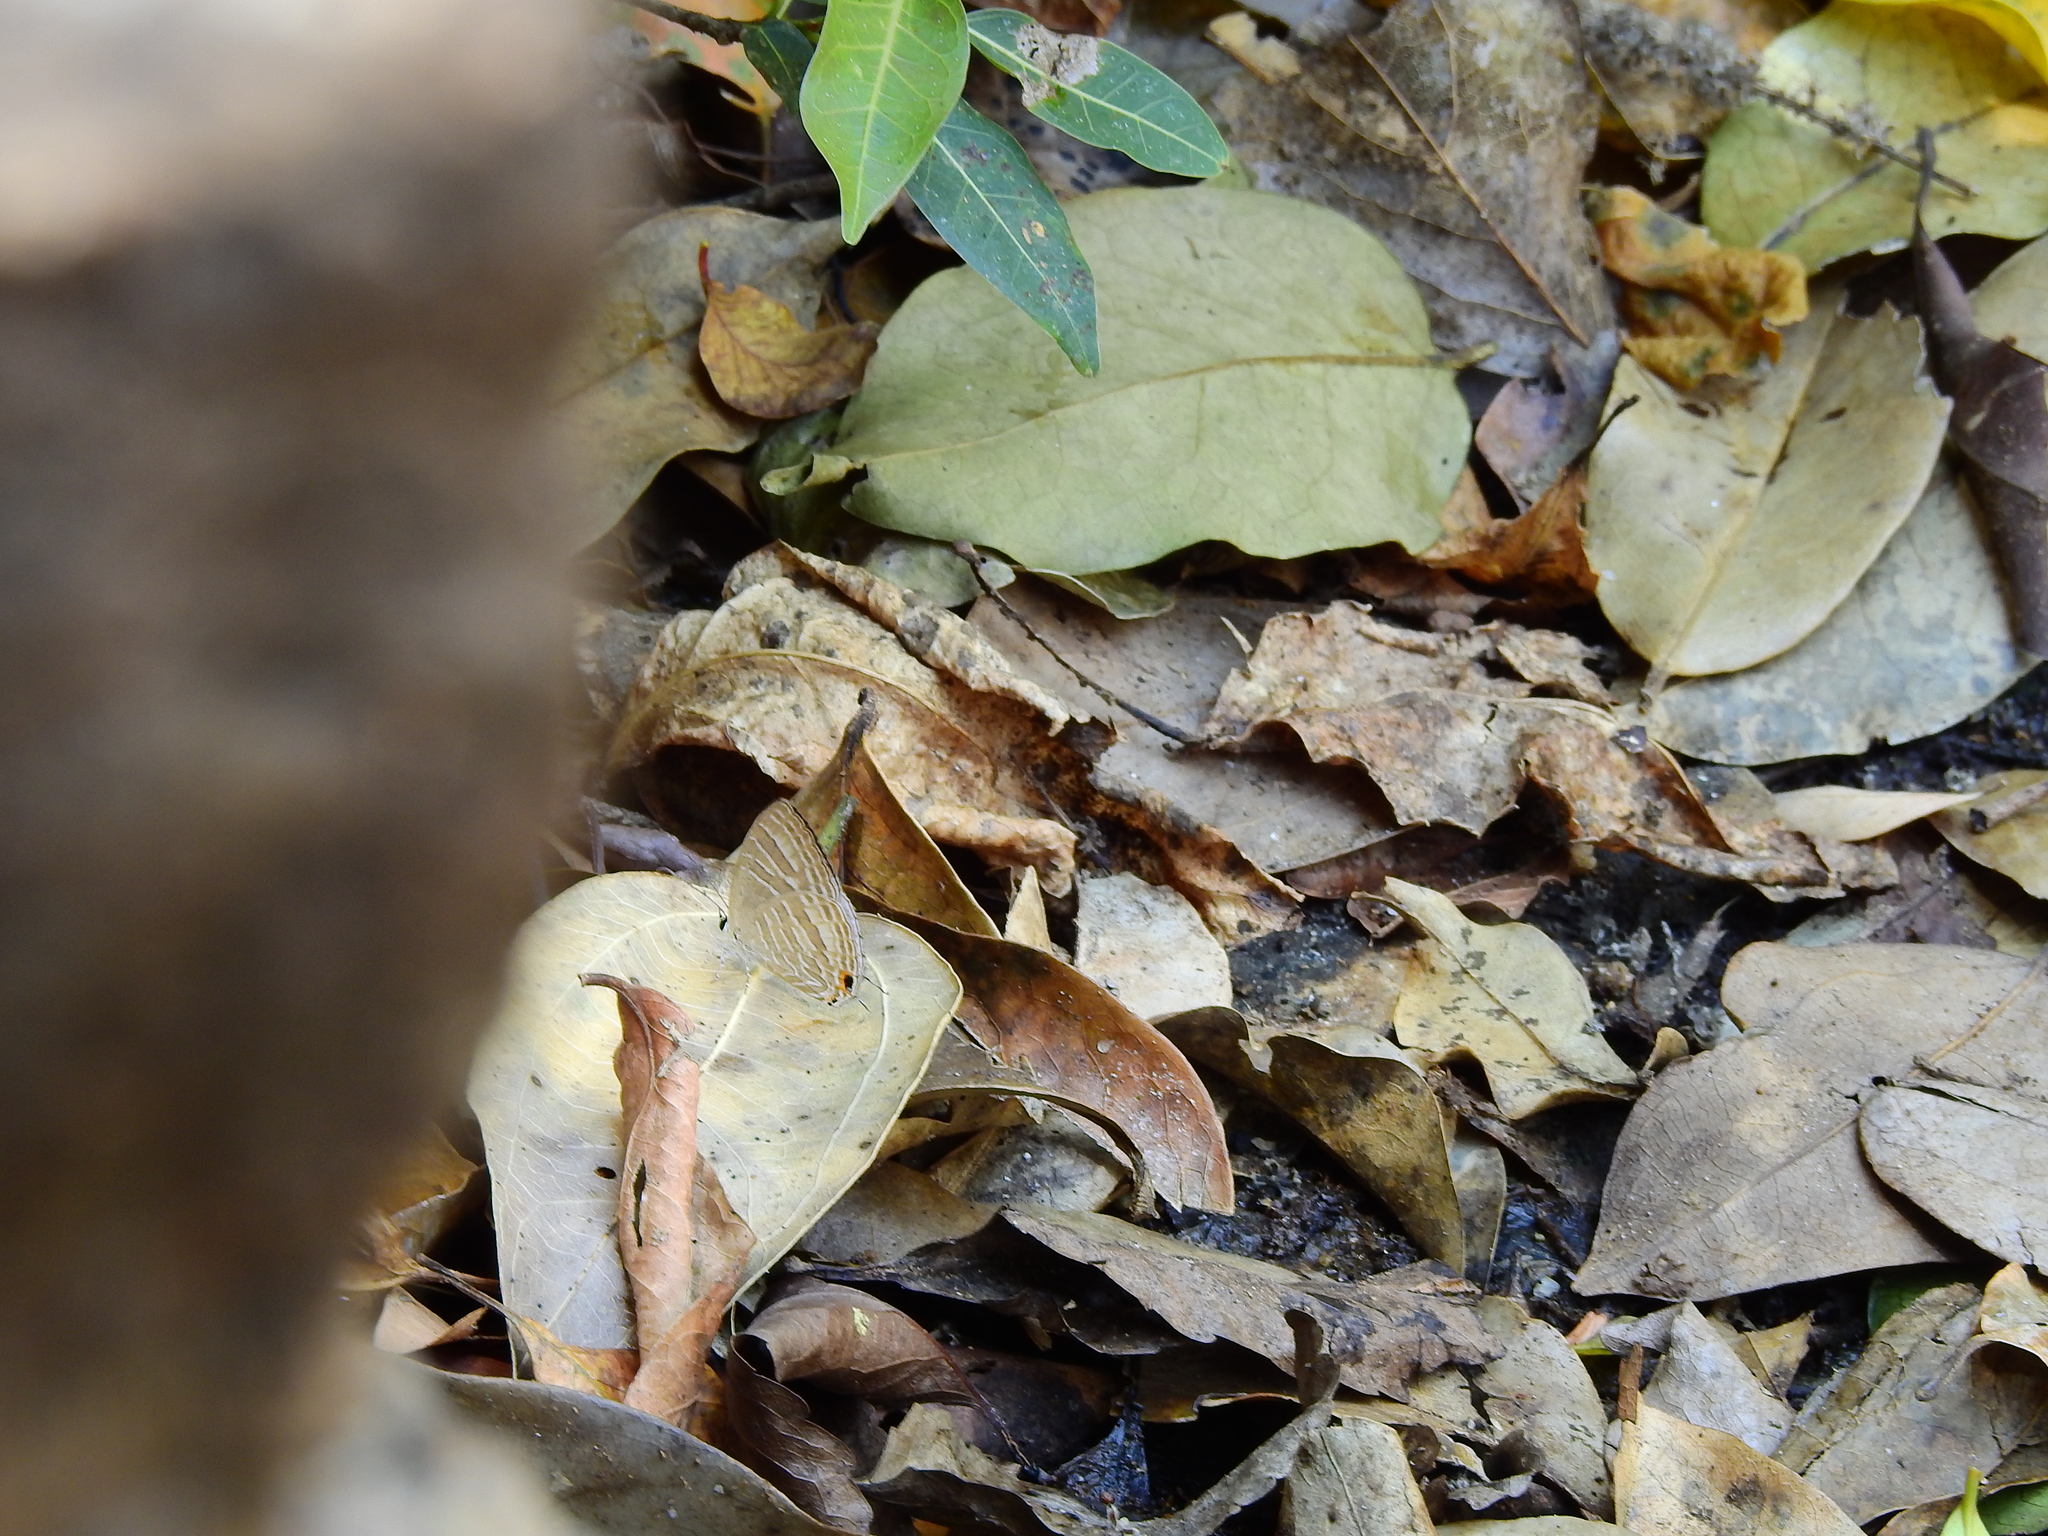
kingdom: Animalia
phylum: Arthropoda
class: Insecta
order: Lepidoptera
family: Lycaenidae
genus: Jamides
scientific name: Jamides celeno
